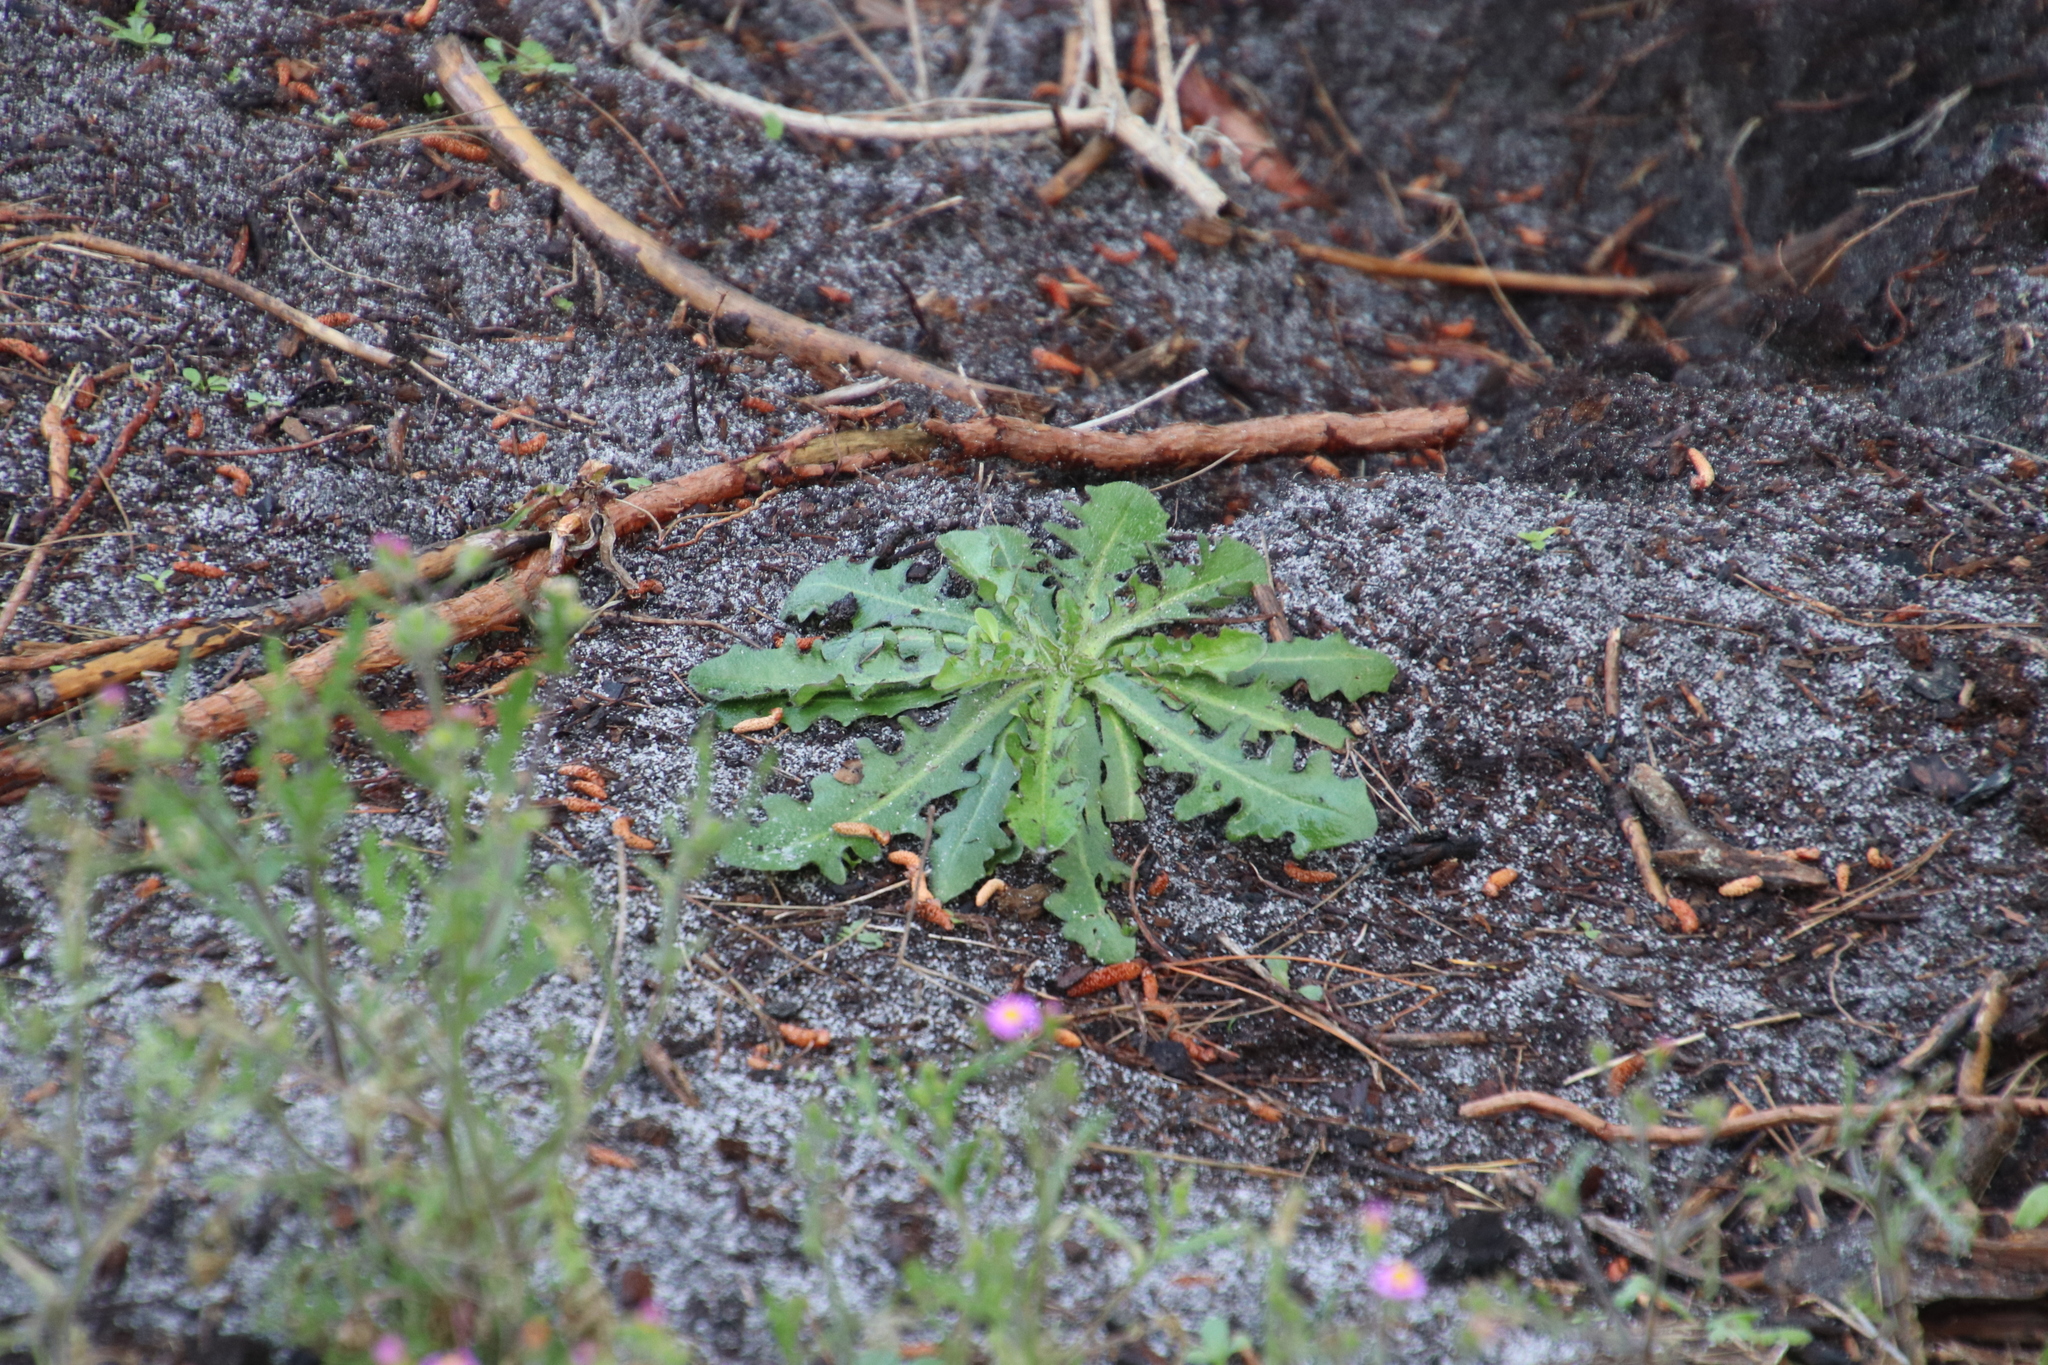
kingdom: Plantae
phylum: Tracheophyta
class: Magnoliopsida
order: Asterales
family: Asteraceae
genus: Hypochaeris
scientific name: Hypochaeris radicata
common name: Flatweed
